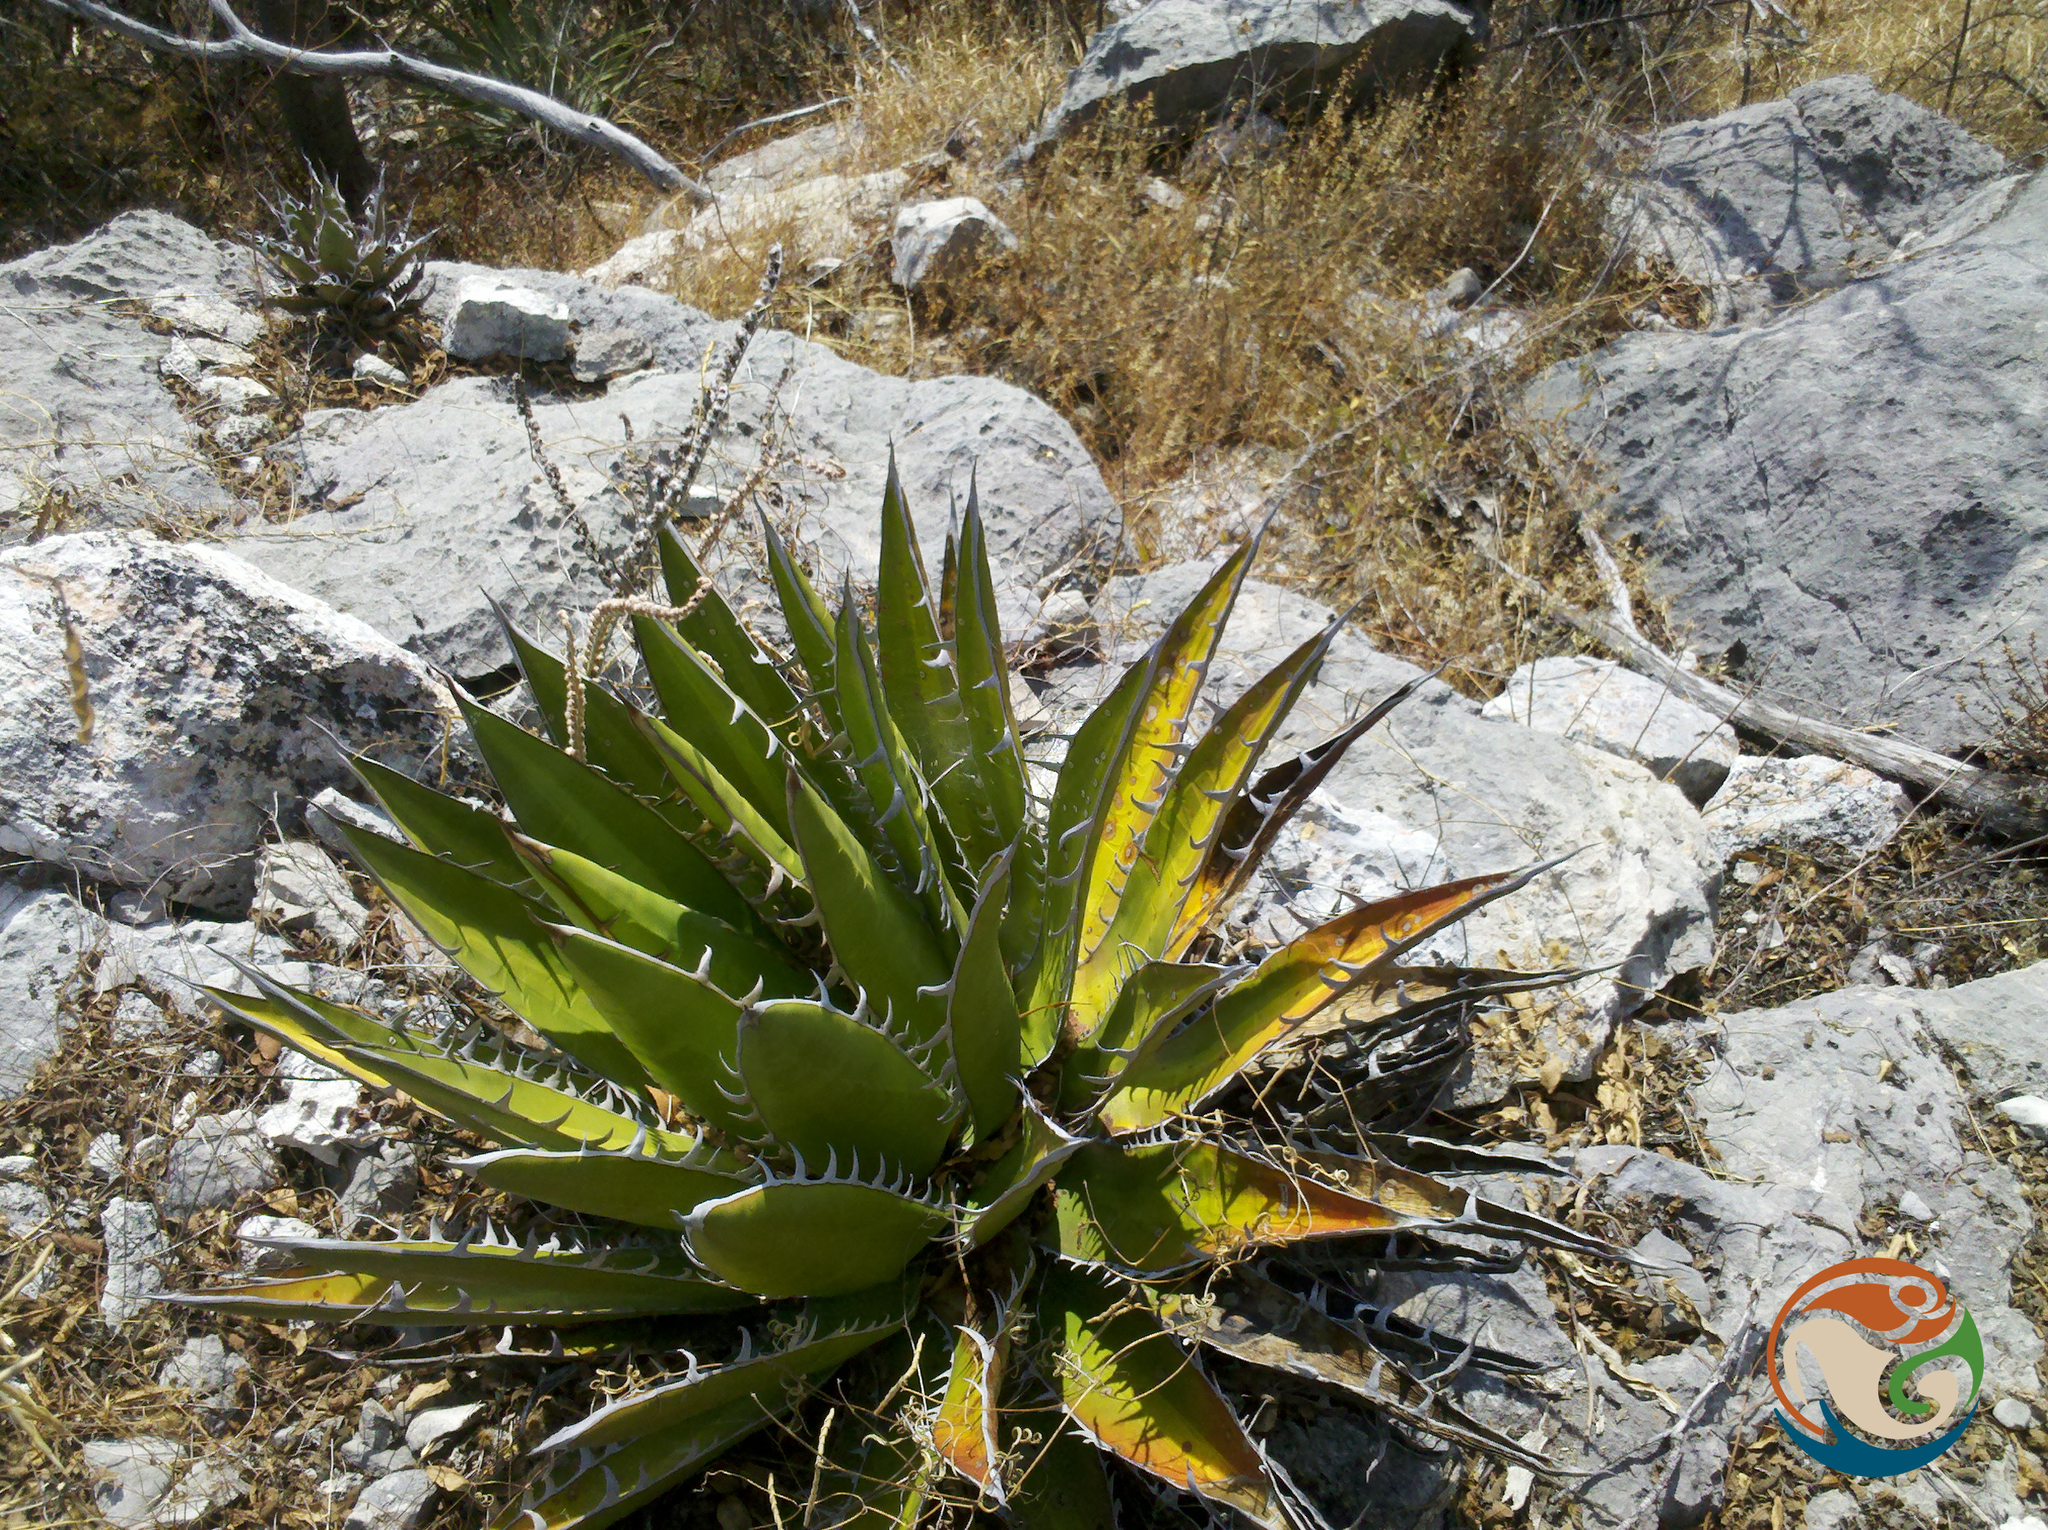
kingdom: Plantae
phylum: Tracheophyta
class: Liliopsida
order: Asparagales
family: Asparagaceae
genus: Agave
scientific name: Agave kerchovei
